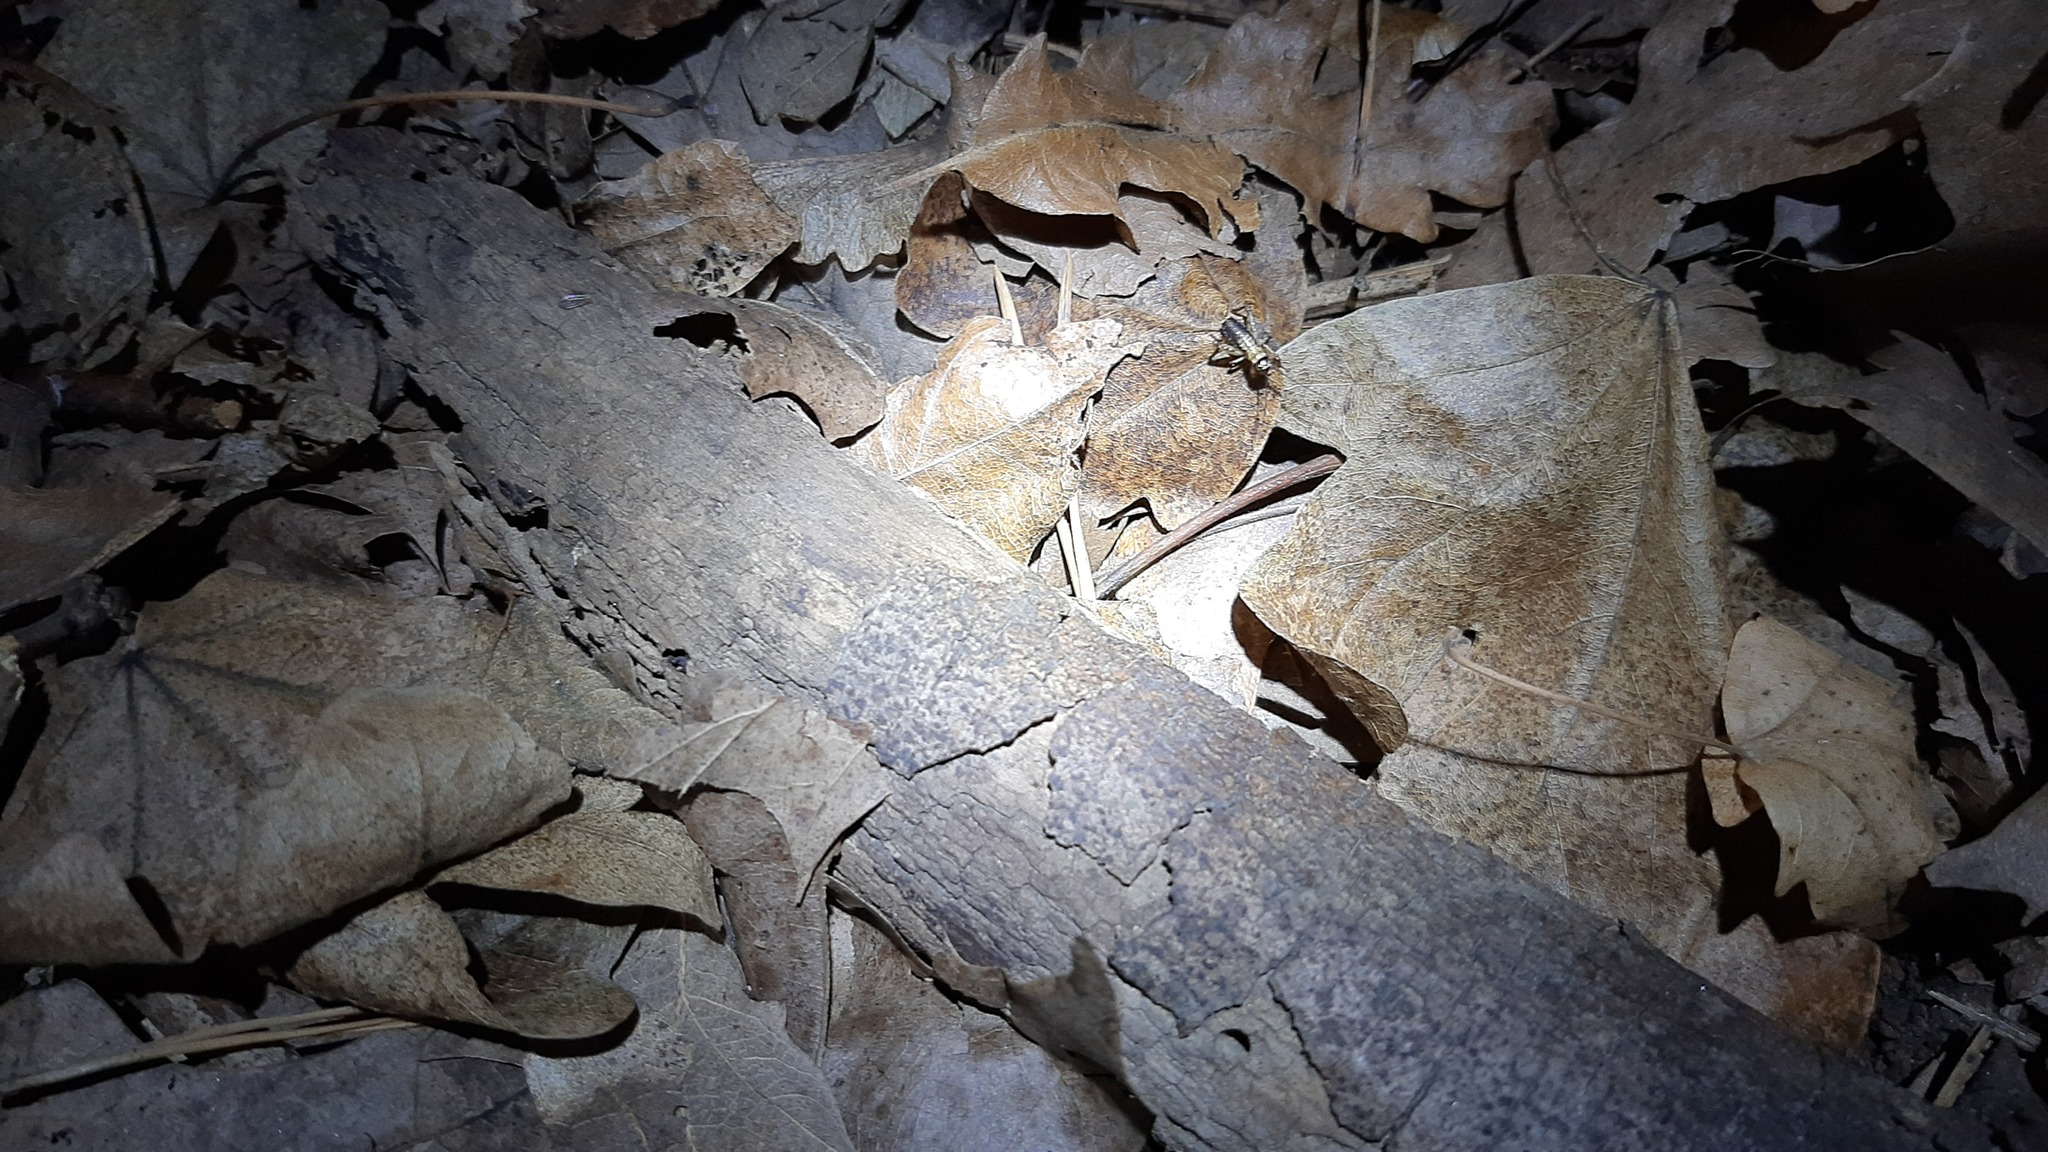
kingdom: Animalia
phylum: Arthropoda
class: Insecta
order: Orthoptera
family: Trigonidiidae
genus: Nemobius
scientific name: Nemobius sylvestris
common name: Wood-cricket
